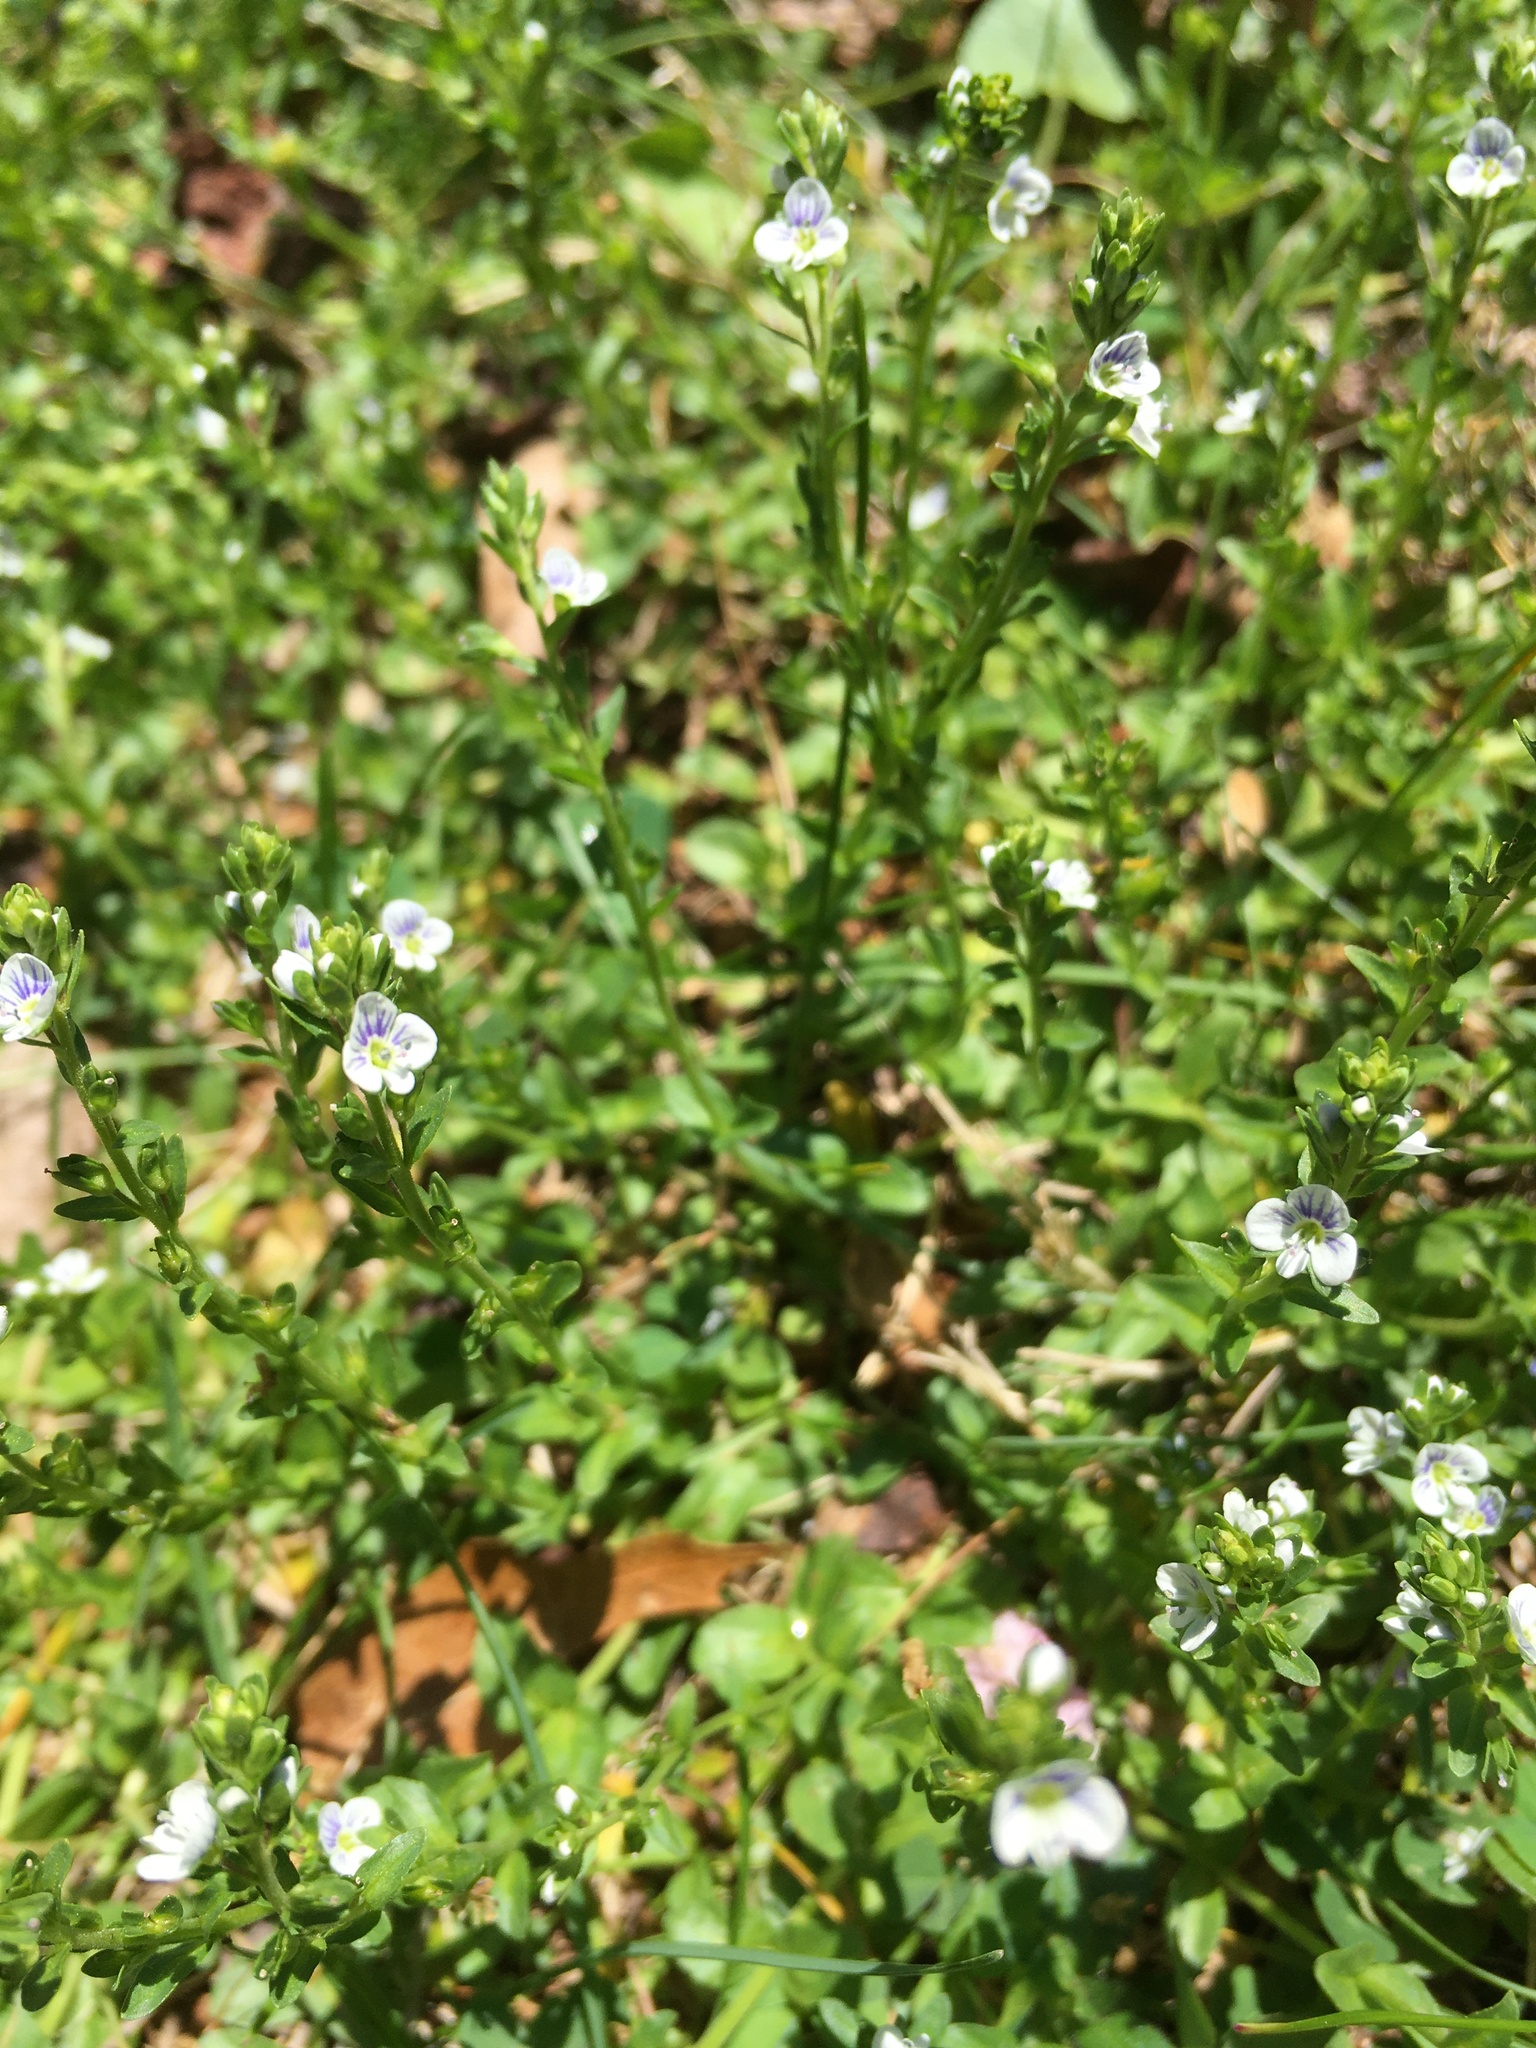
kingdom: Plantae
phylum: Tracheophyta
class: Magnoliopsida
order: Lamiales
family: Plantaginaceae
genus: Veronica
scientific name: Veronica serpyllifolia
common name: Thyme-leaved speedwell
